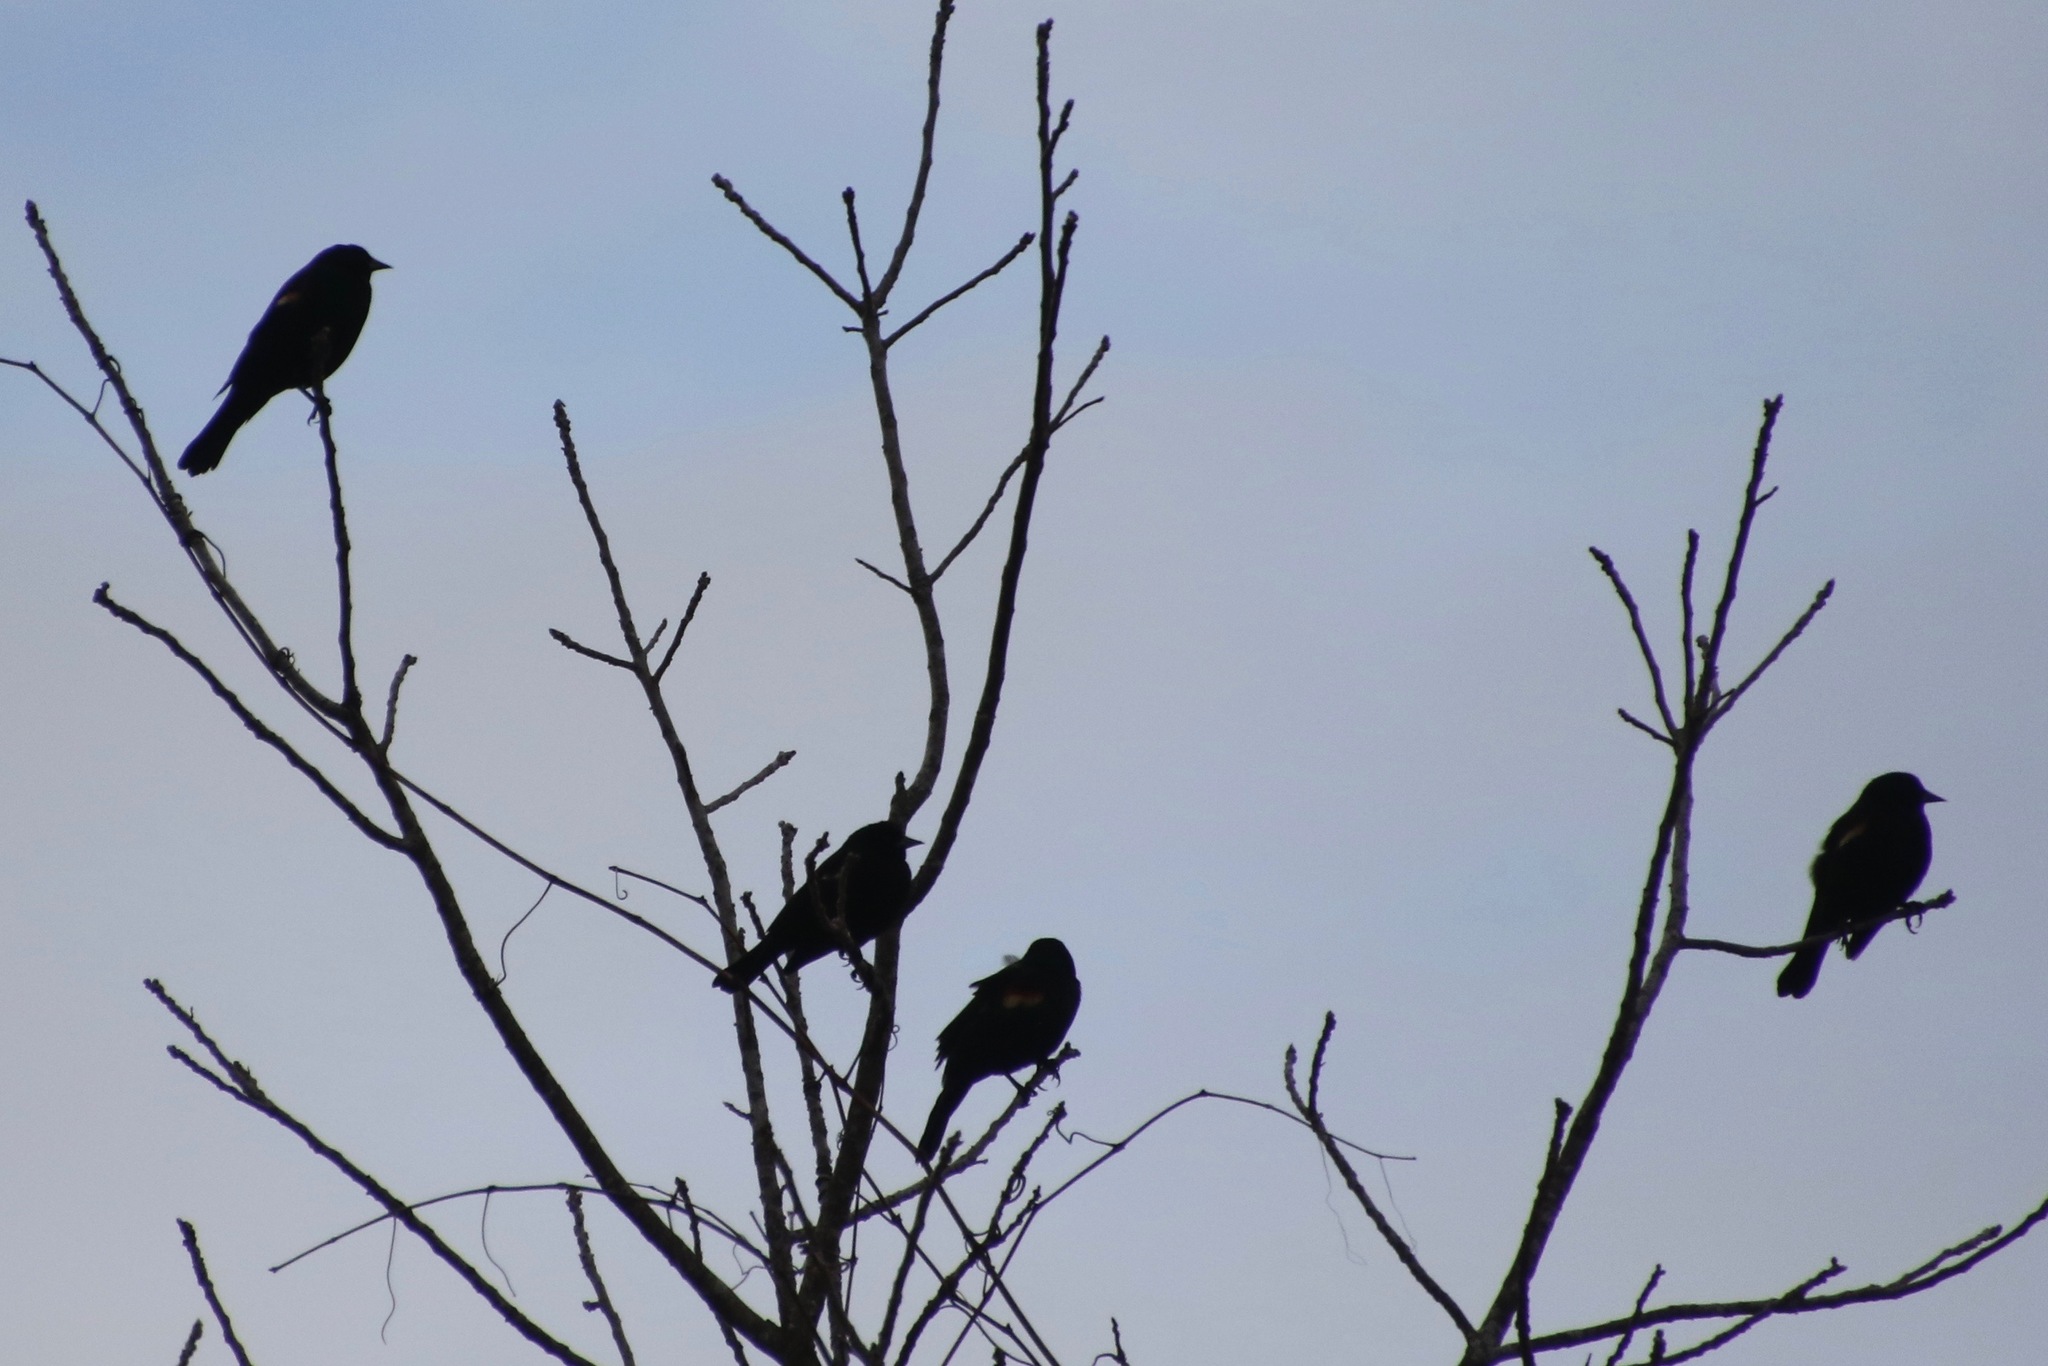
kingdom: Animalia
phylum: Chordata
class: Aves
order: Passeriformes
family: Icteridae
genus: Agelaius
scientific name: Agelaius phoeniceus
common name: Red-winged blackbird
